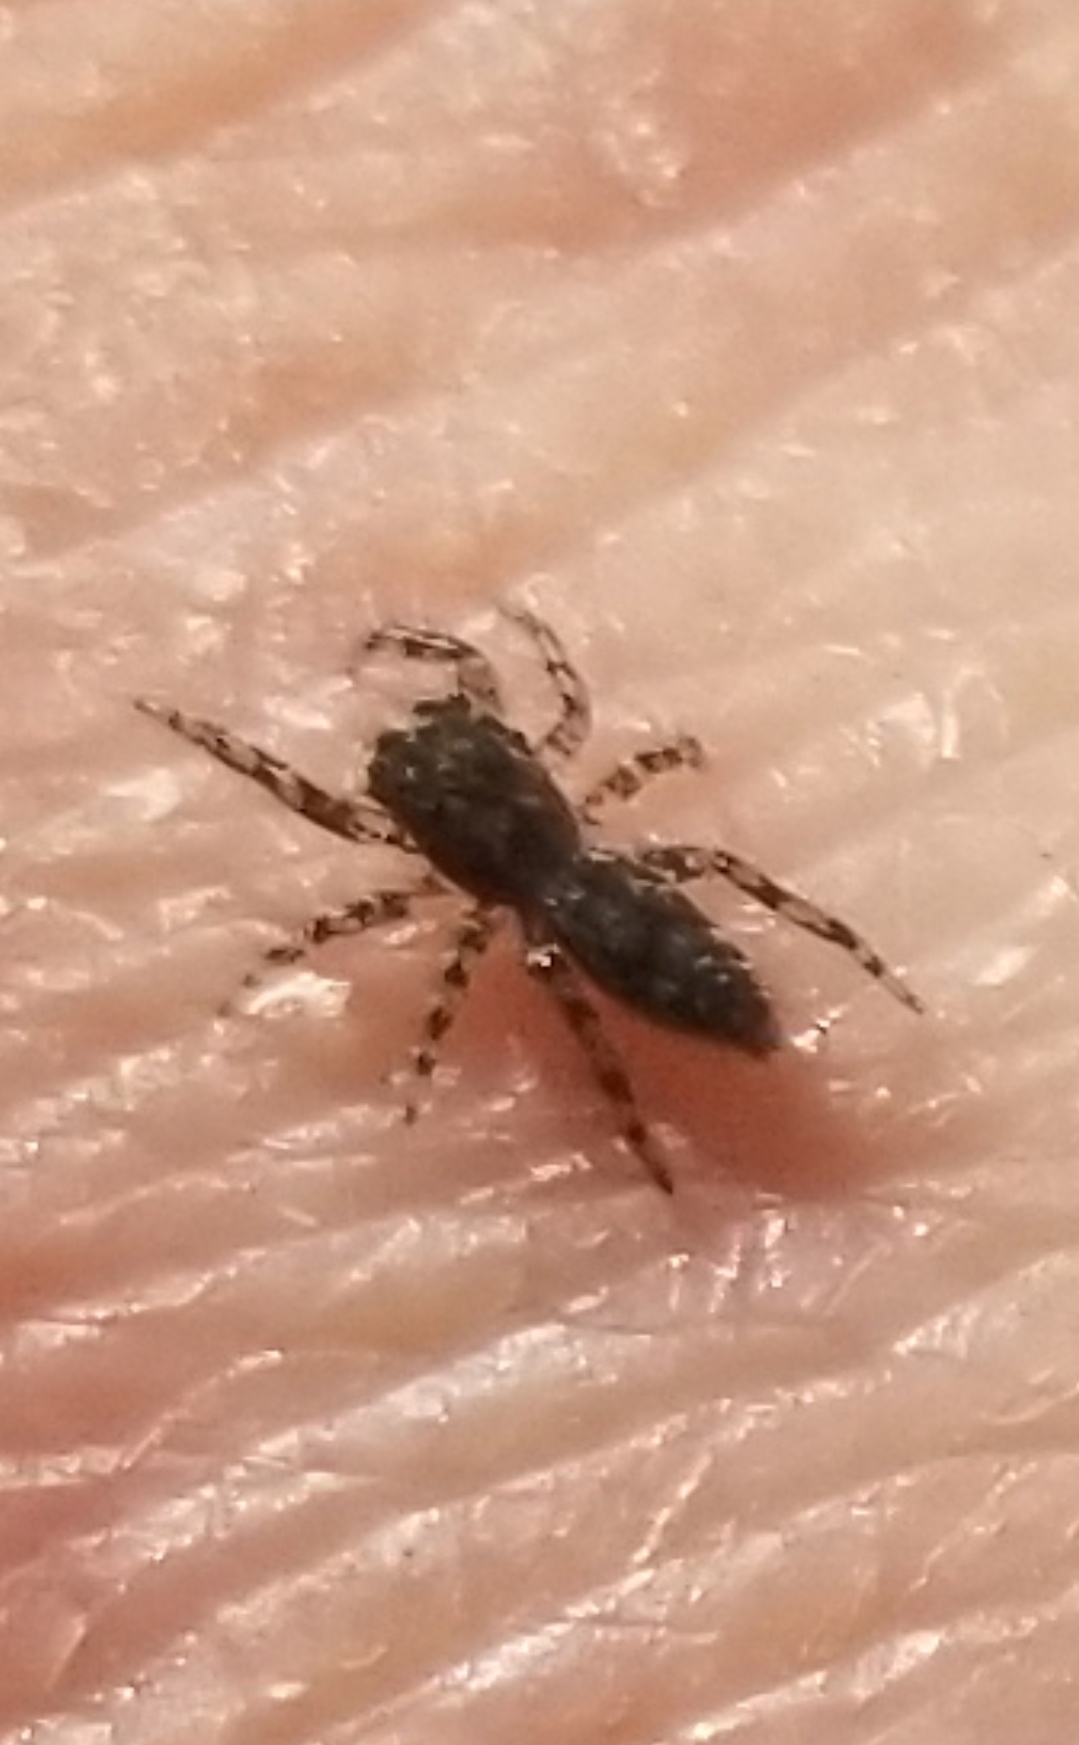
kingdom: Animalia
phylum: Arthropoda
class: Arachnida
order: Araneae
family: Salticidae
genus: Platycryptus
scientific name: Platycryptus undatus
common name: Tan jumping spider
